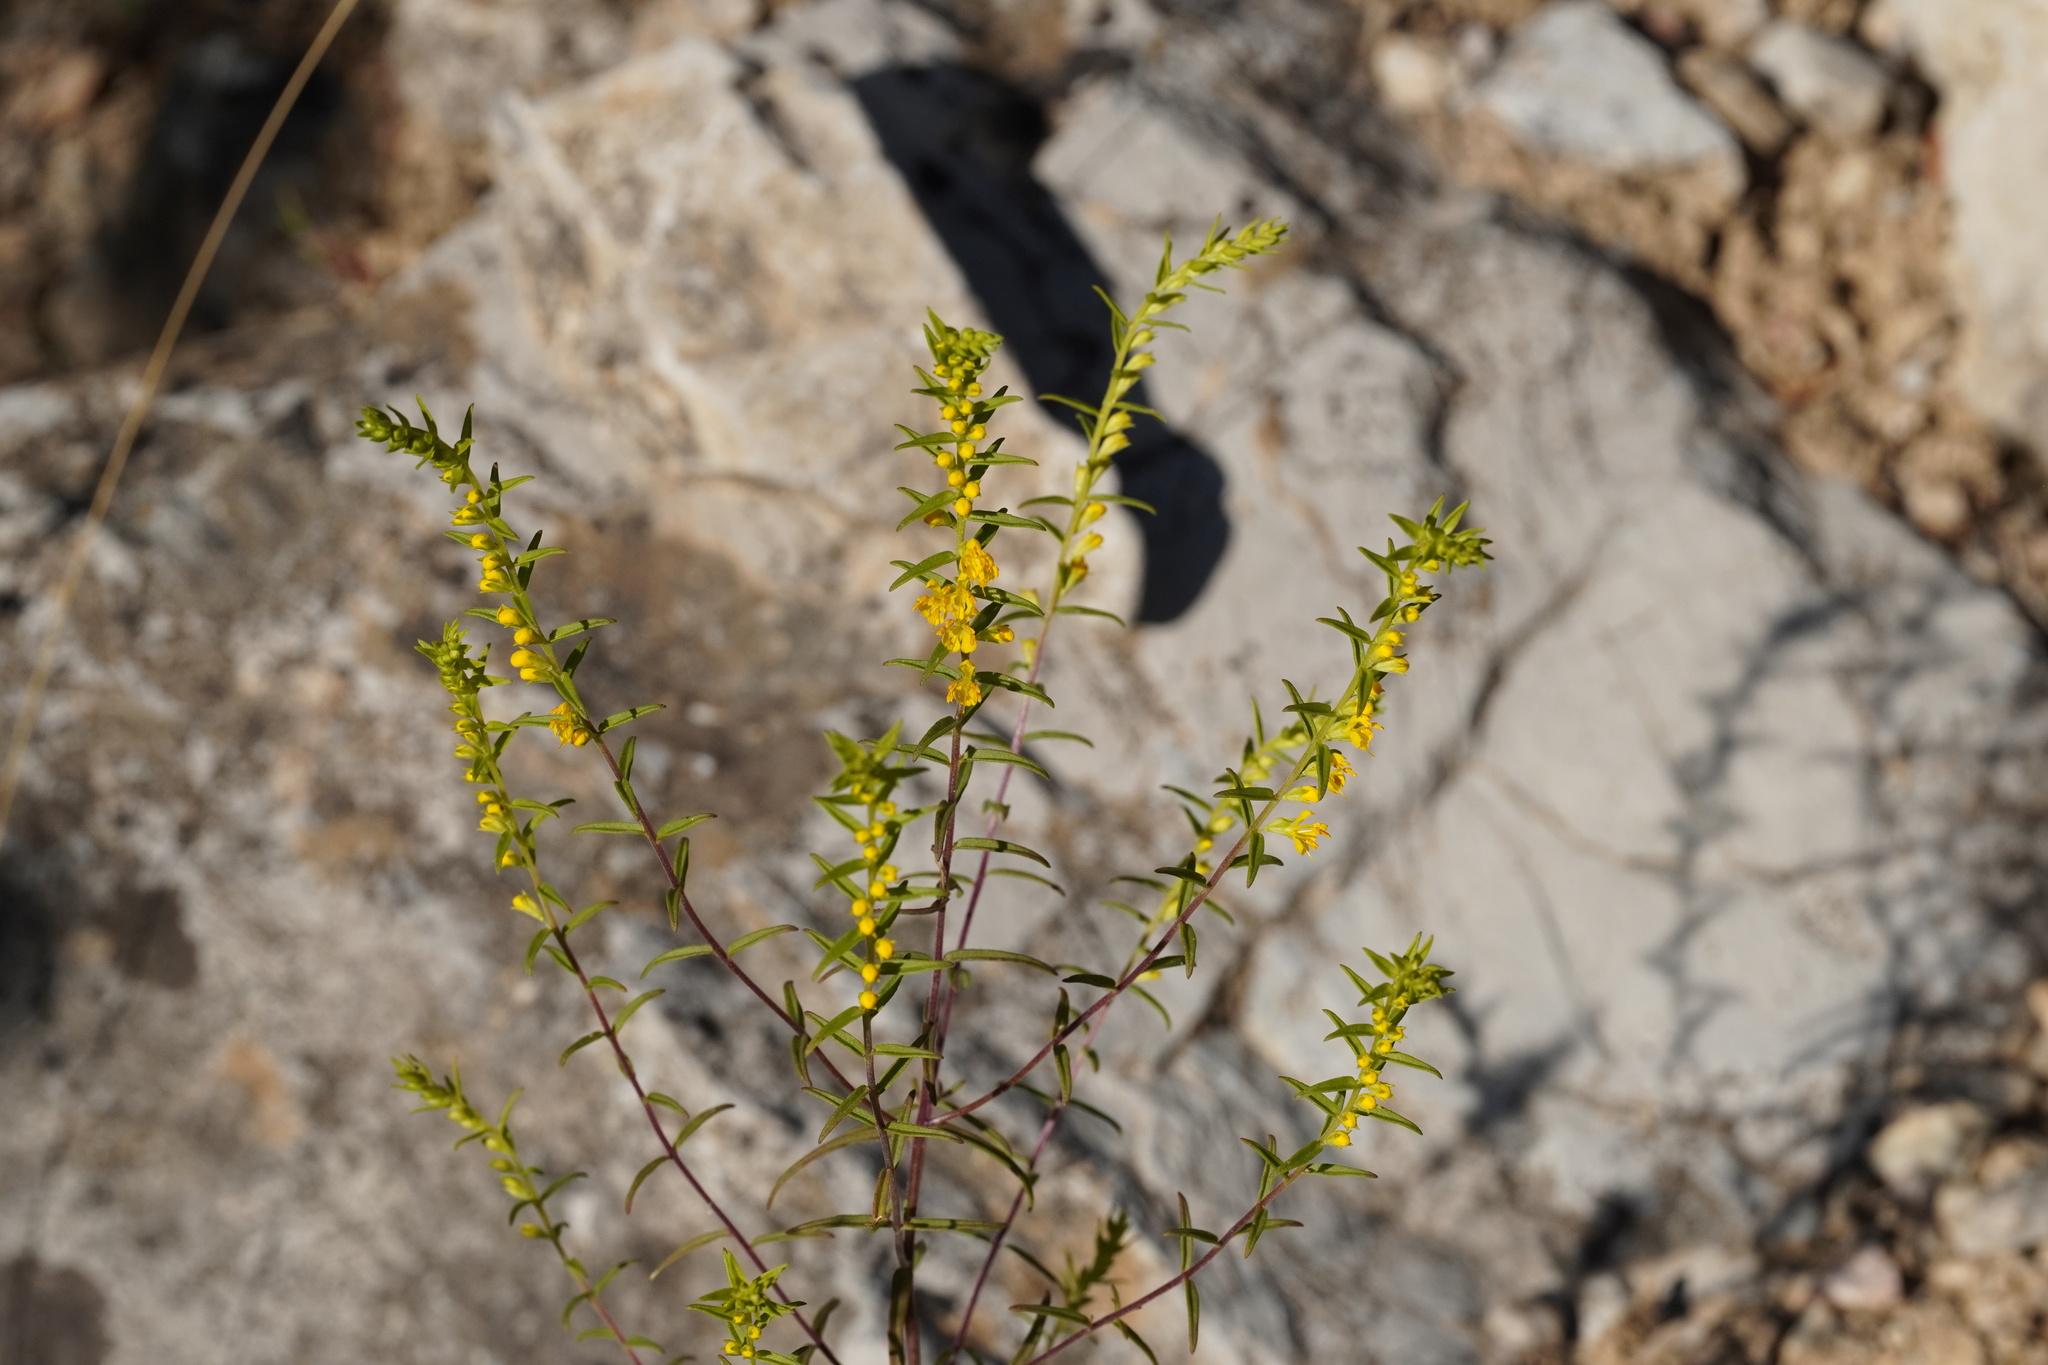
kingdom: Plantae
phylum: Tracheophyta
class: Magnoliopsida
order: Lamiales
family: Orobanchaceae
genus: Odontites
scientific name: Odontites luteus
